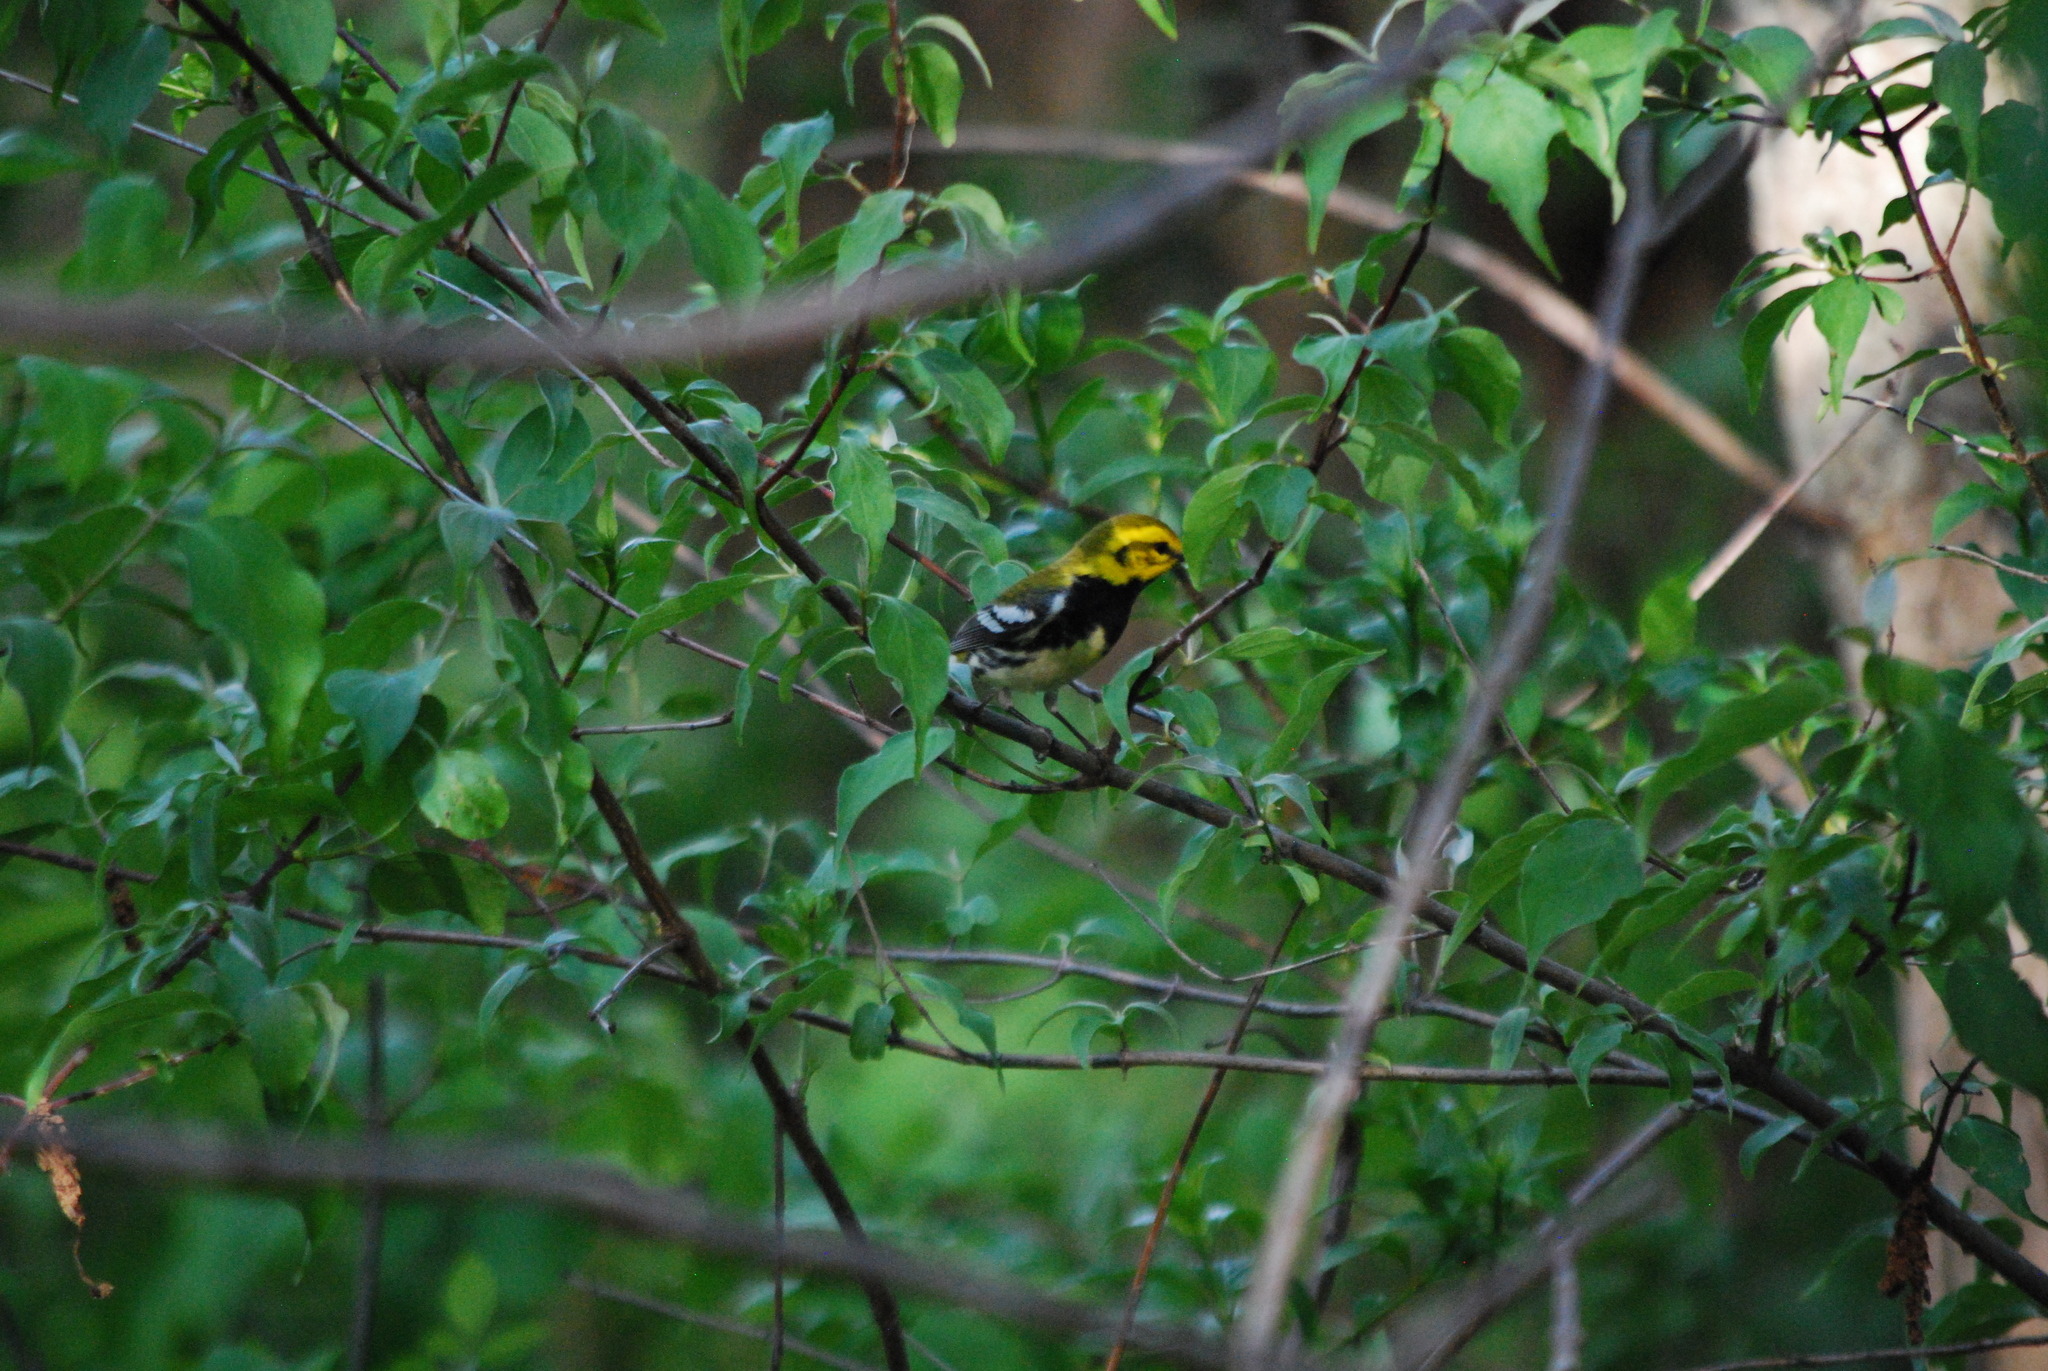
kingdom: Animalia
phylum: Chordata
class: Aves
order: Passeriformes
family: Parulidae
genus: Setophaga
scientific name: Setophaga virens
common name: Black-throated green warbler
